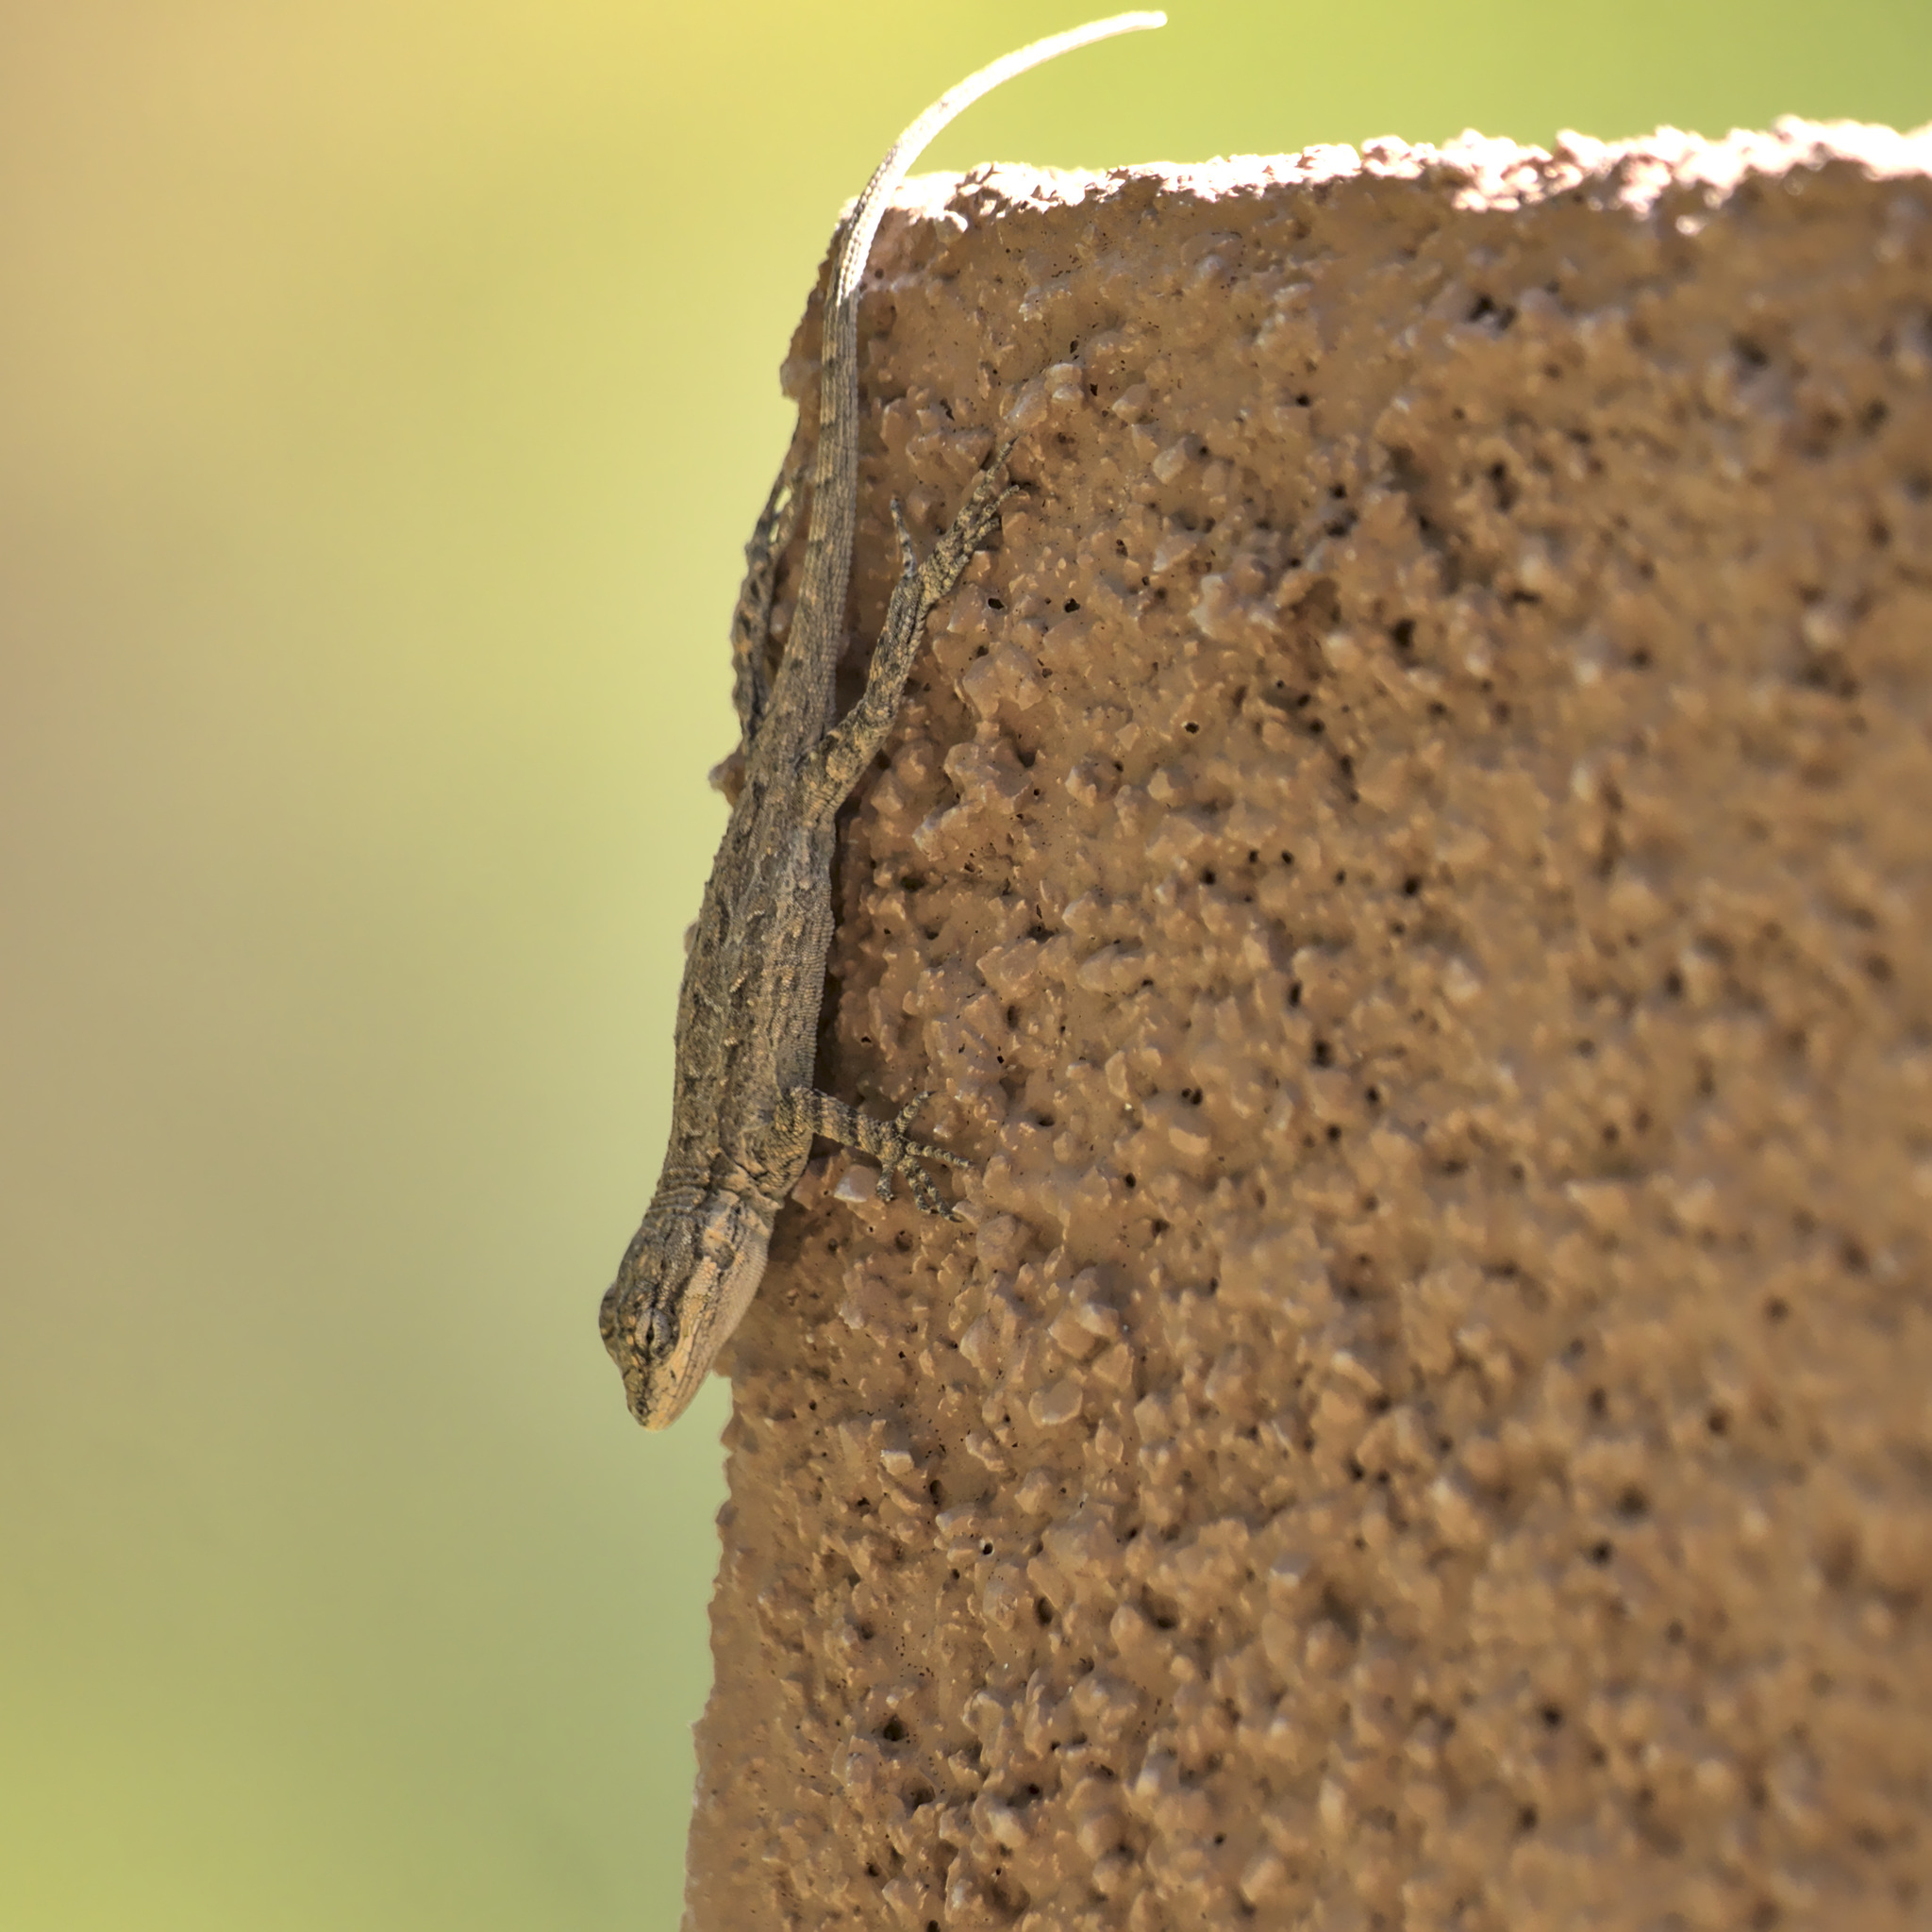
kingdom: Animalia
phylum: Chordata
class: Squamata
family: Phrynosomatidae
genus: Urosaurus
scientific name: Urosaurus ornatus
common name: Ornate tree lizard
